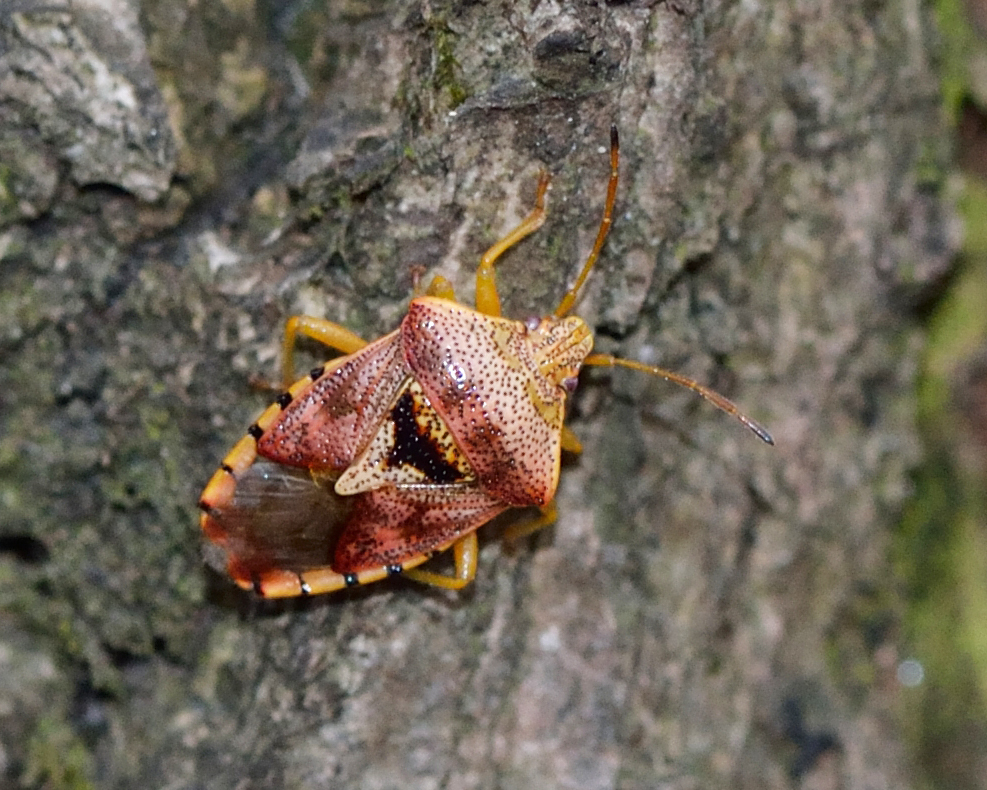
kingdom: Animalia
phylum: Arthropoda
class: Insecta
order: Hemiptera
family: Acanthosomatidae
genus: Elasmucha
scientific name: Elasmucha grisea
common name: Parent bug
